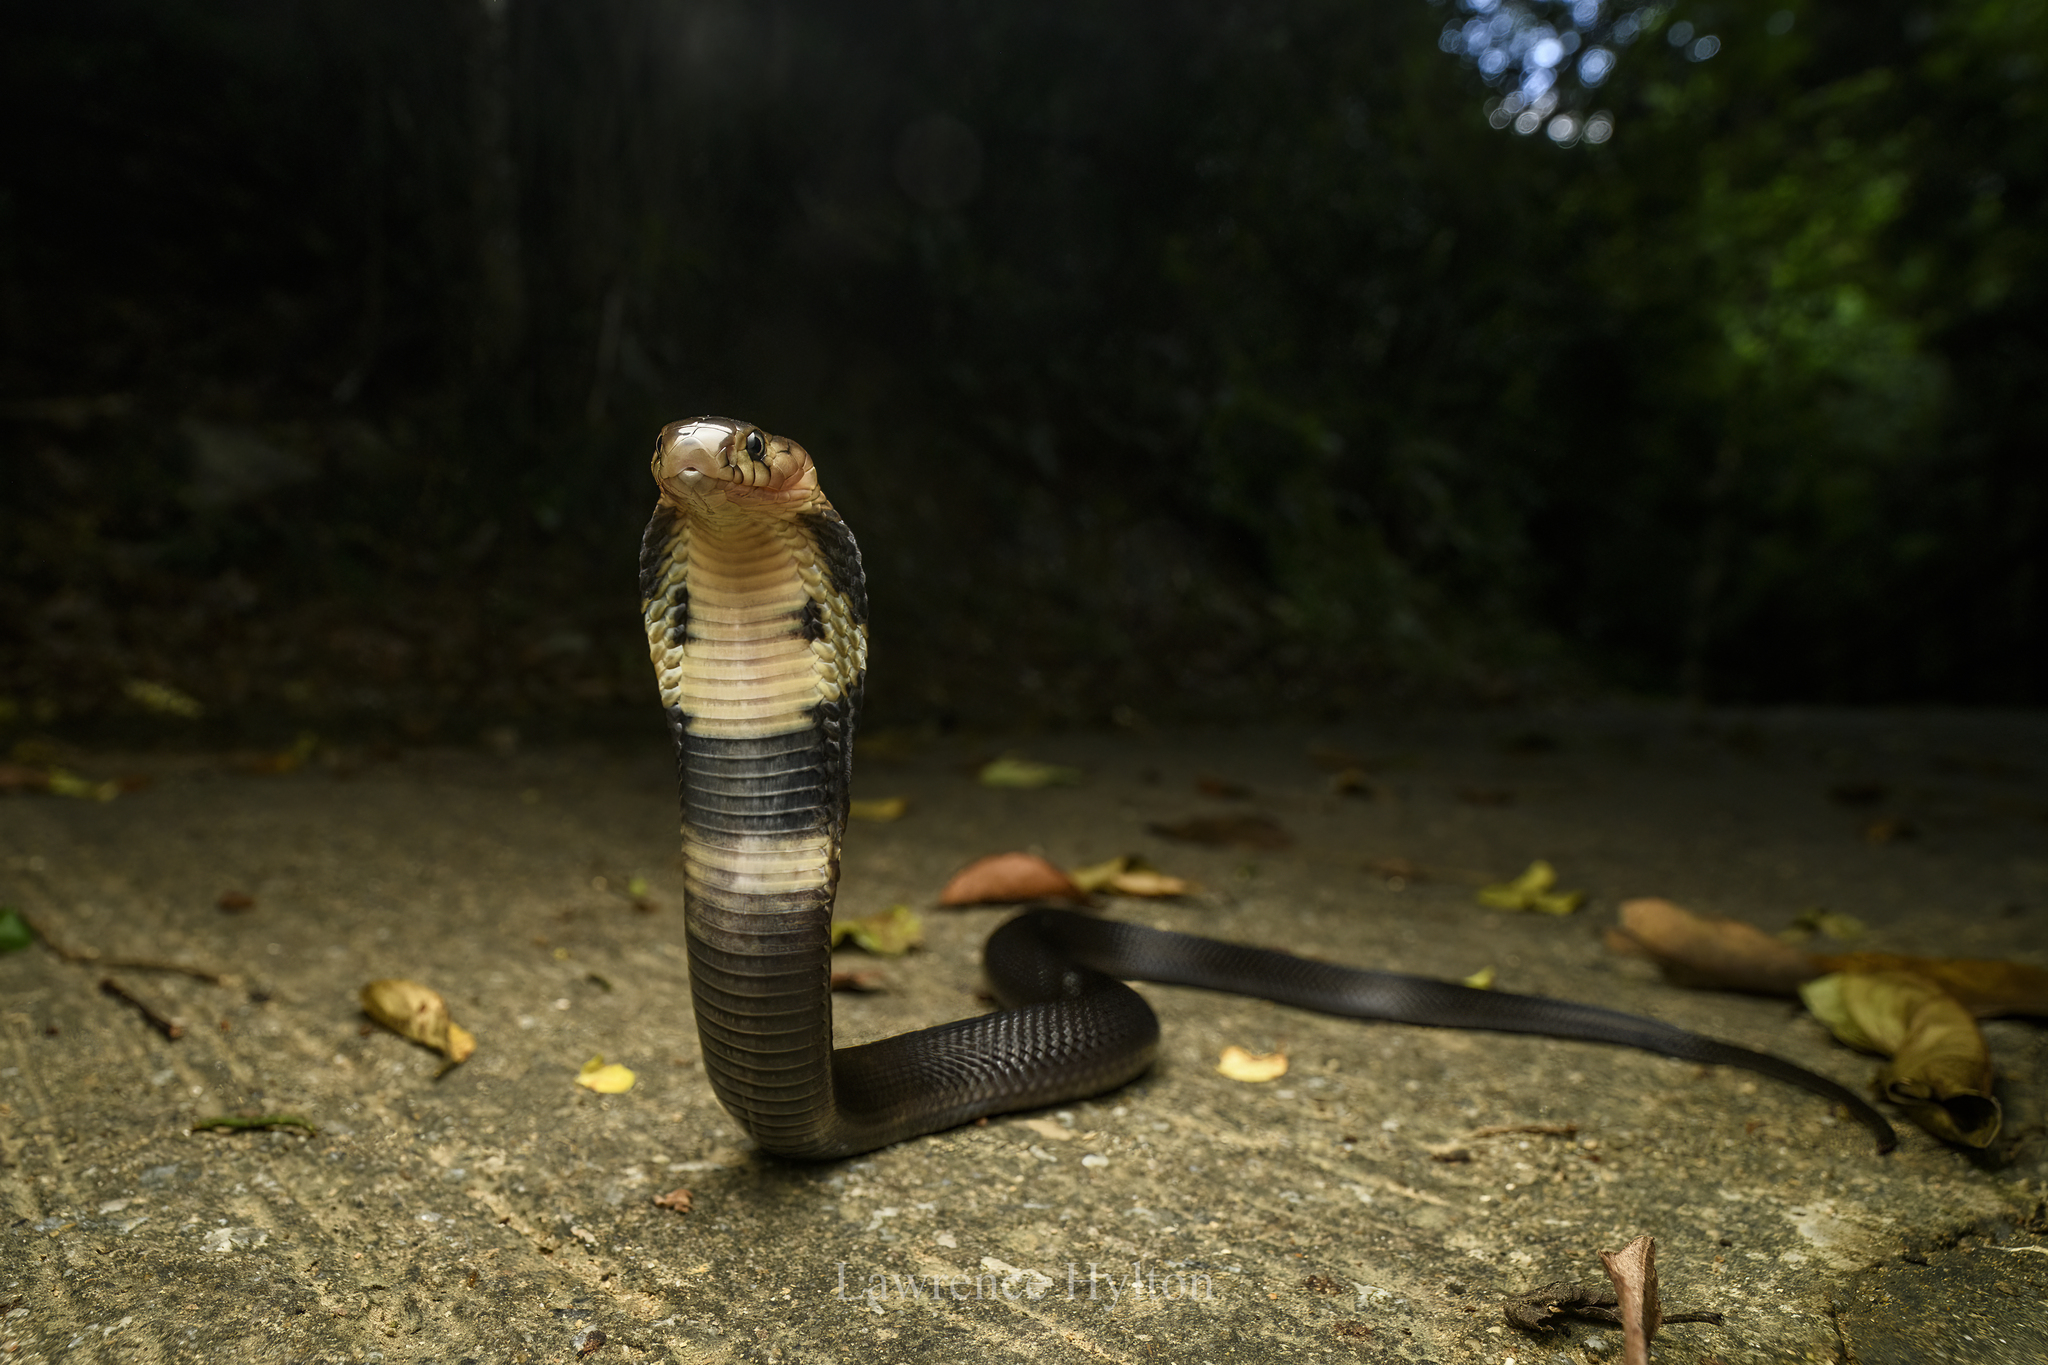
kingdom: Animalia
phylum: Chordata
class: Squamata
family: Elapidae
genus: Naja
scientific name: Naja atra
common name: Chinese cobra
